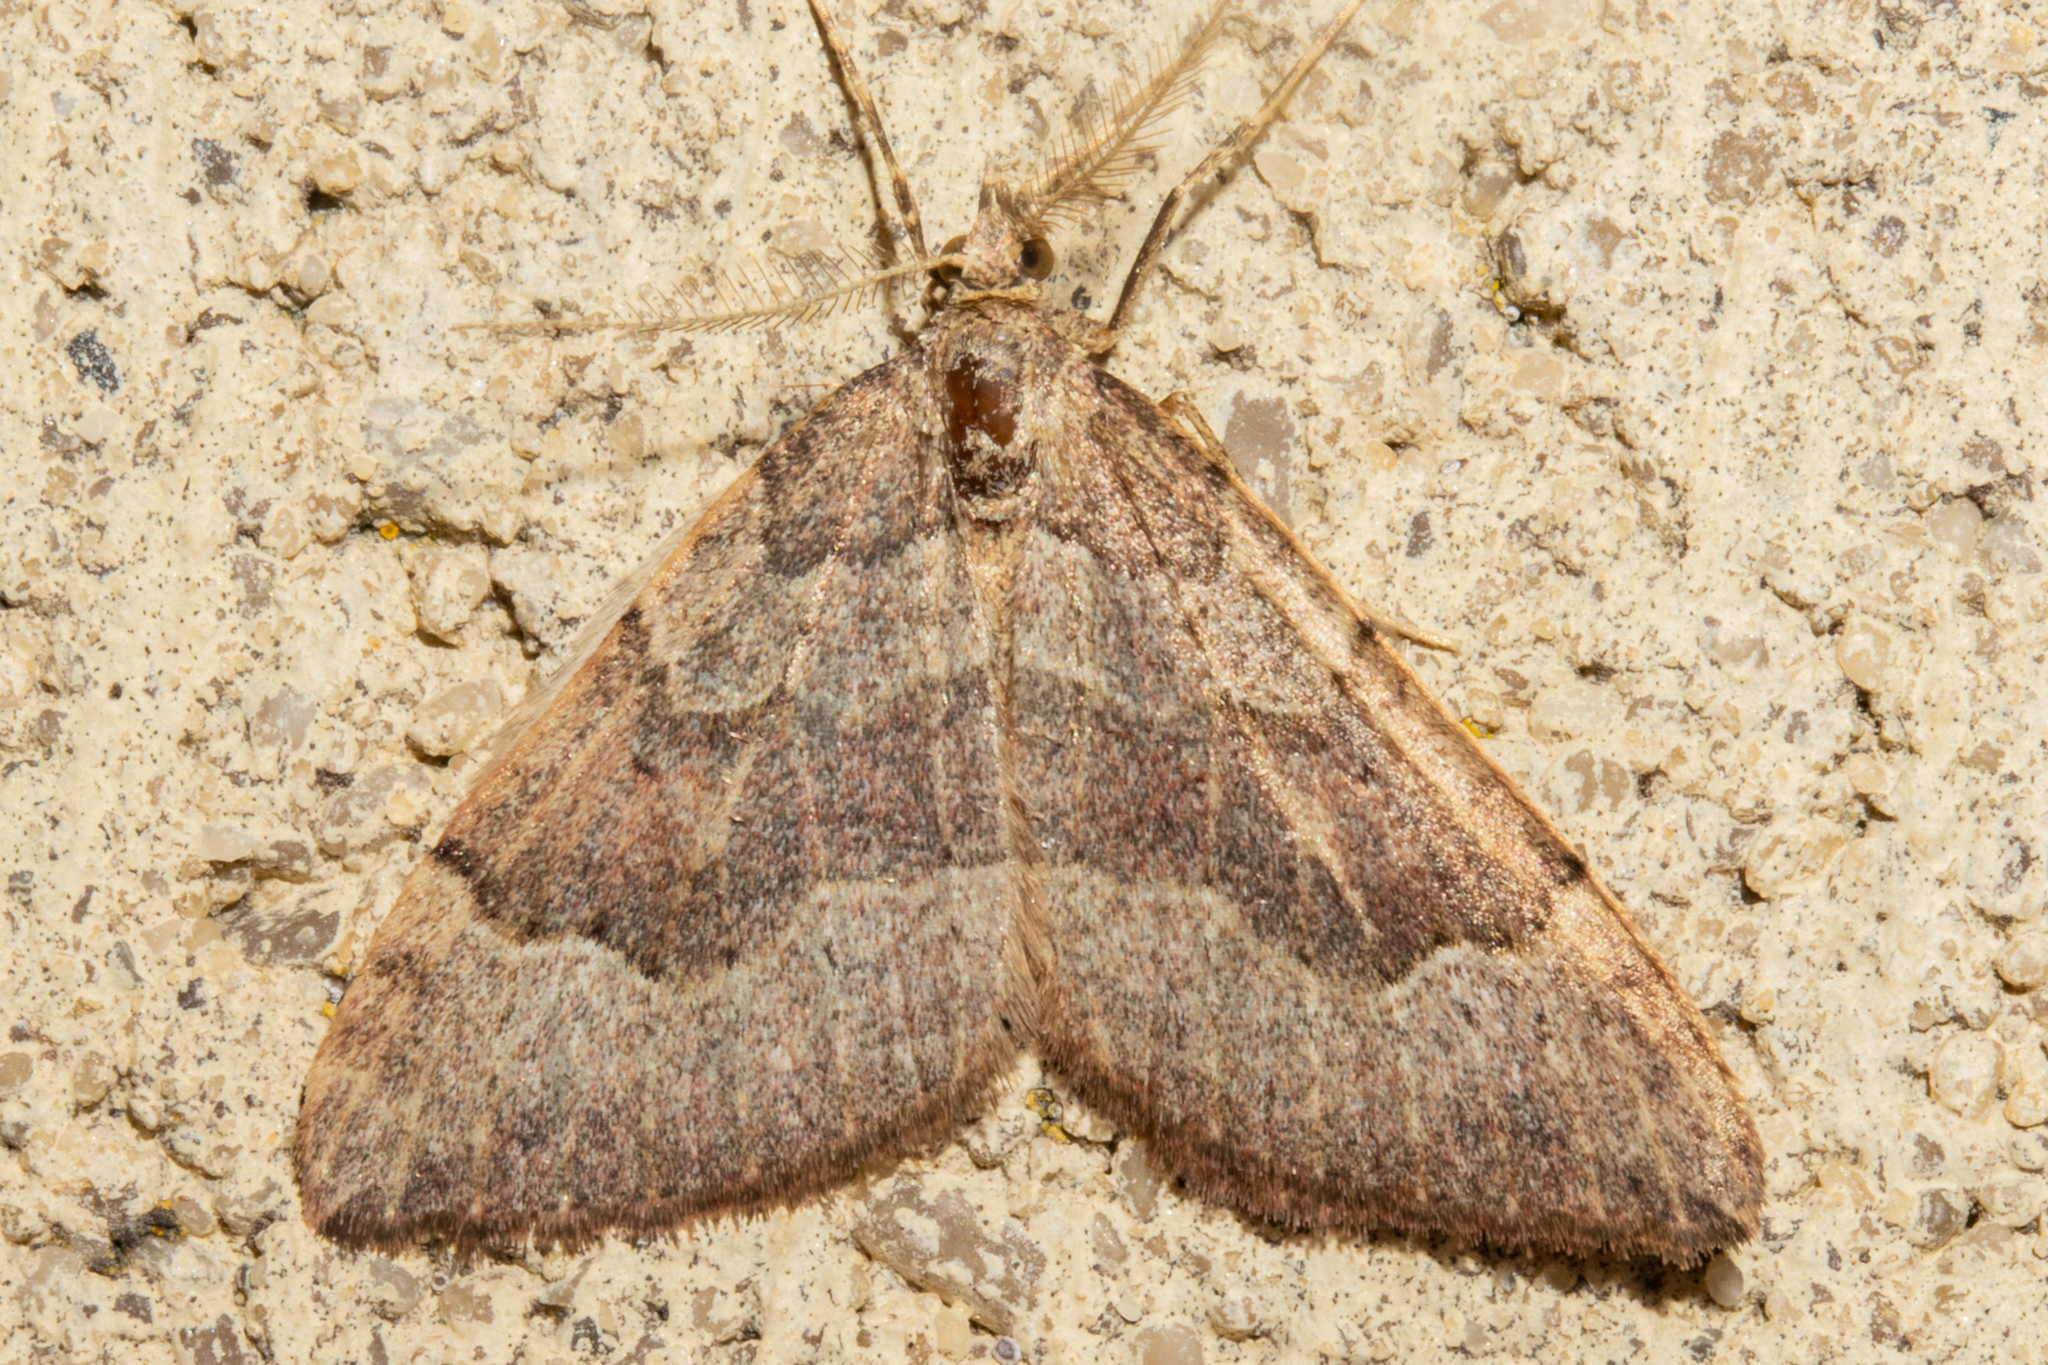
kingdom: Animalia
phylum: Arthropoda
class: Insecta
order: Lepidoptera
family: Geometridae
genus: Epyaxa
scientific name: Epyaxa rosearia
